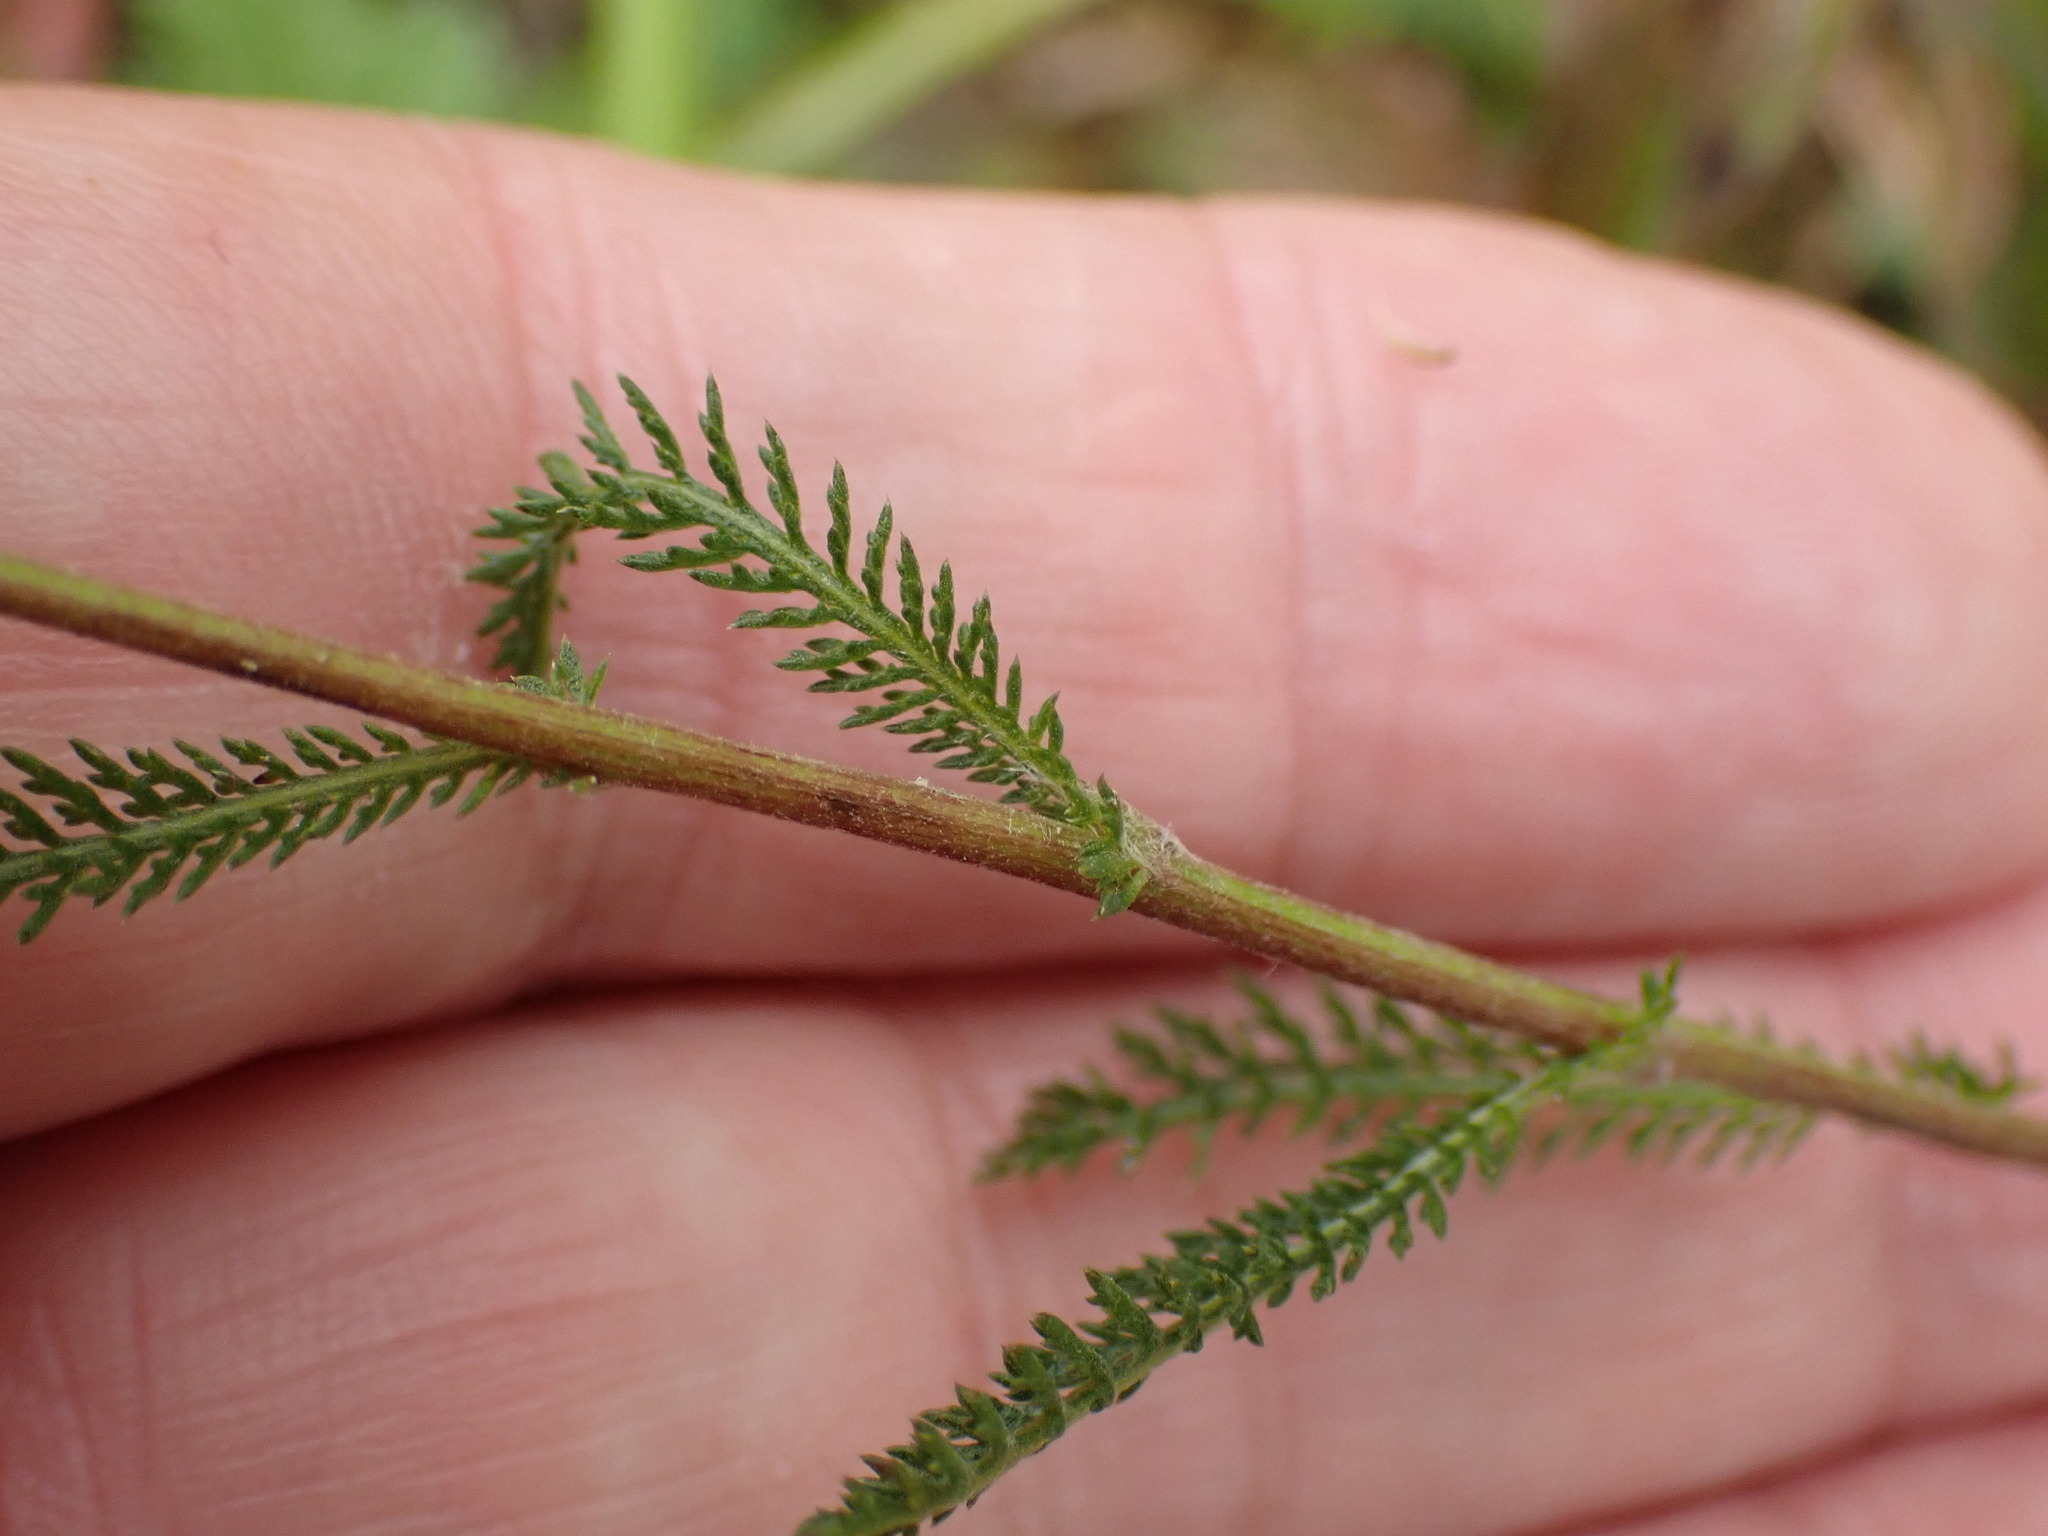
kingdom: Plantae
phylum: Tracheophyta
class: Magnoliopsida
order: Asterales
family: Asteraceae
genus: Achillea
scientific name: Achillea millefolium
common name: Yarrow
